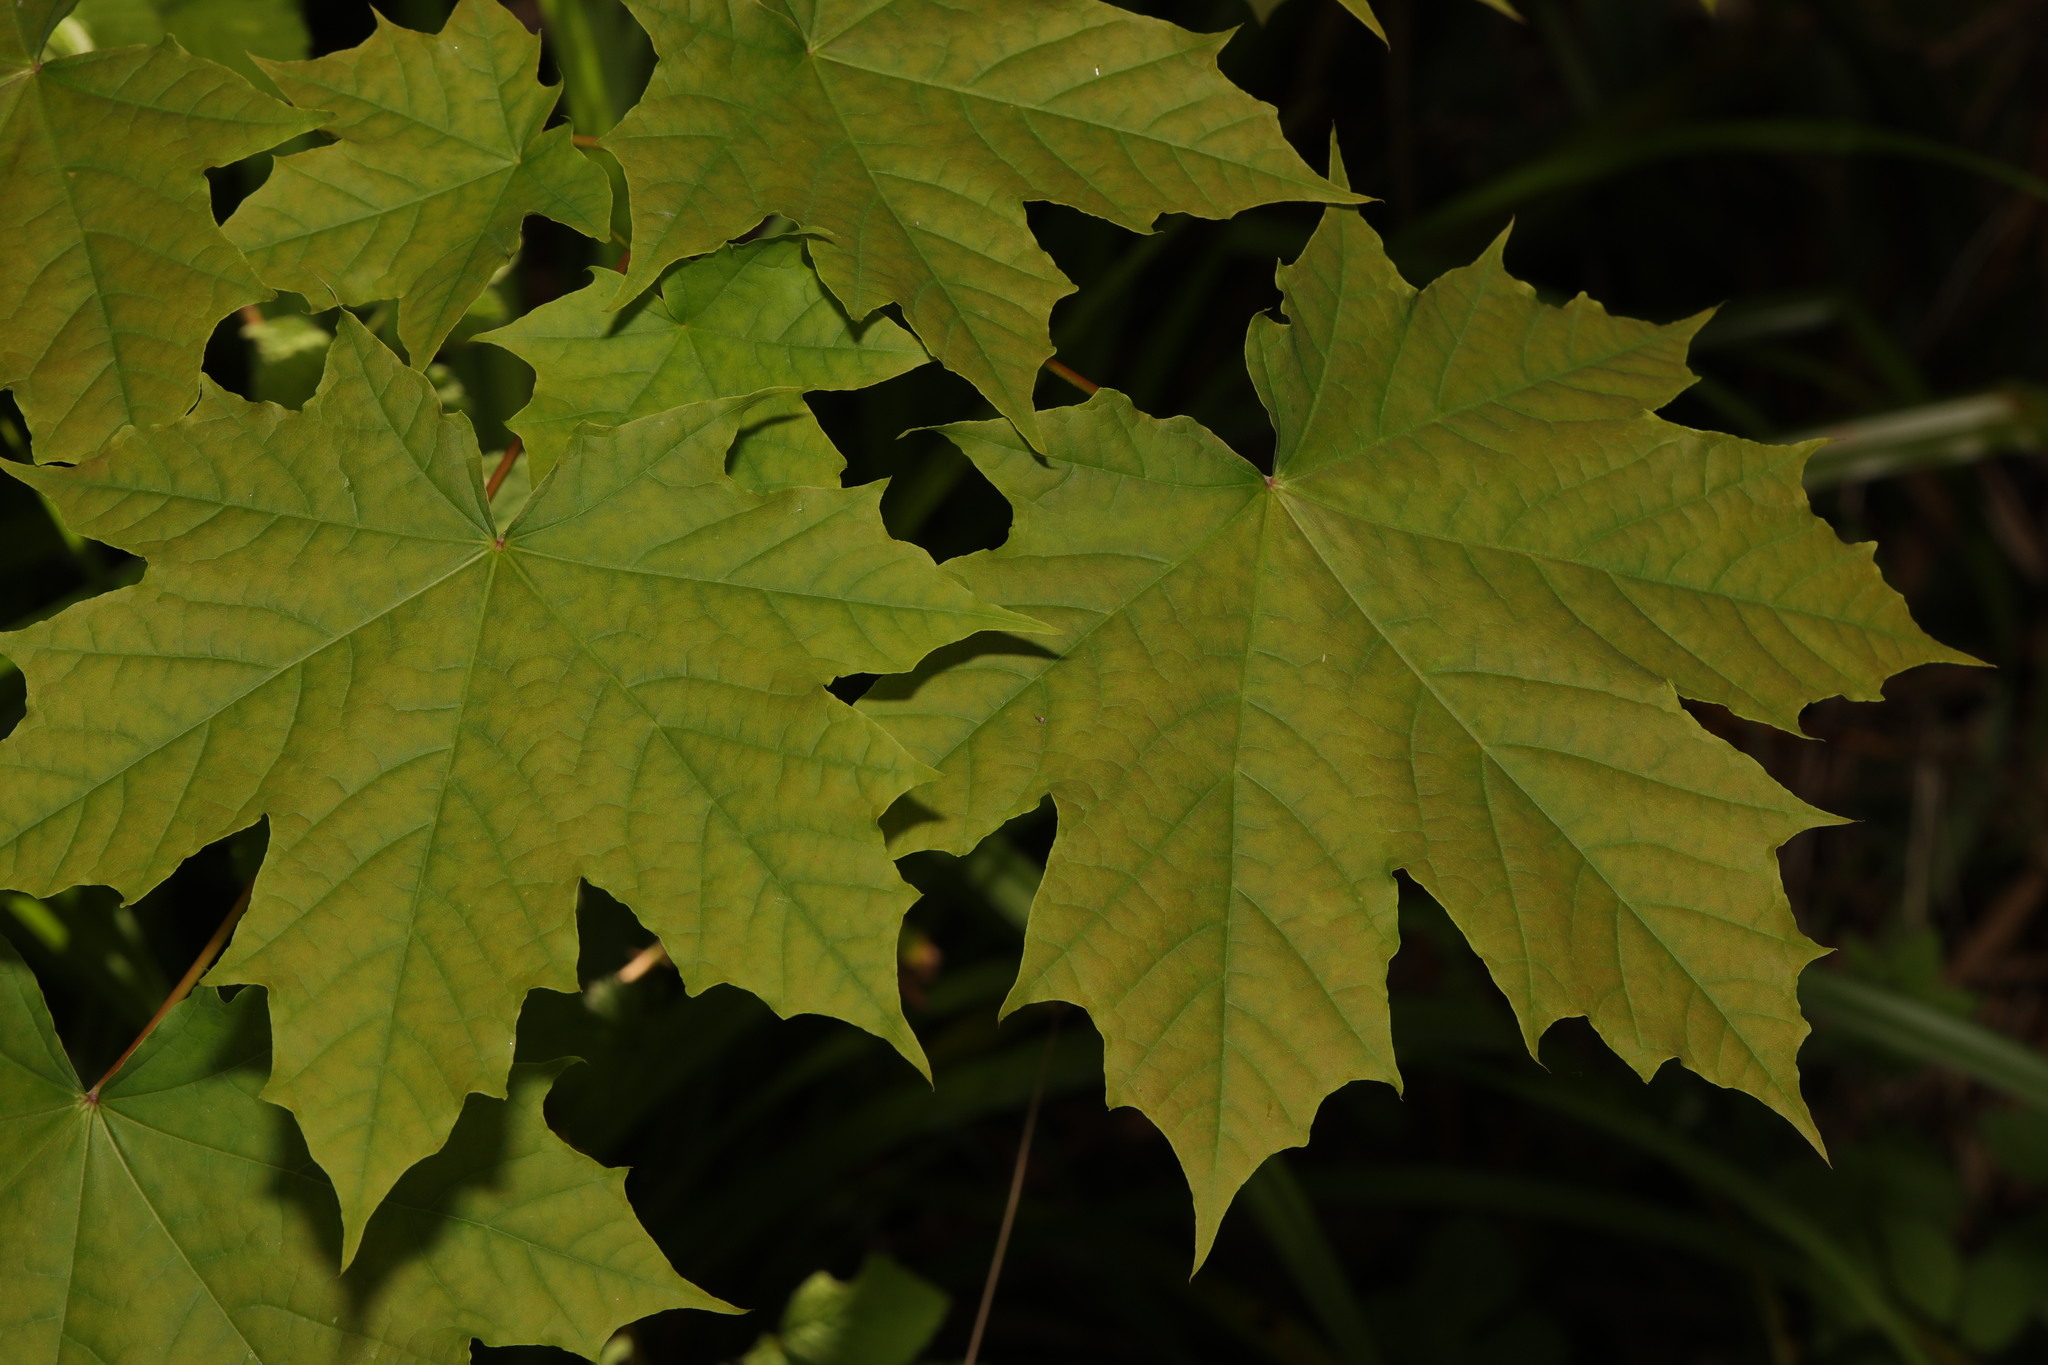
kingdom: Plantae
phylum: Tracheophyta
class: Magnoliopsida
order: Sapindales
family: Sapindaceae
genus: Acer
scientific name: Acer platanoides
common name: Norway maple
